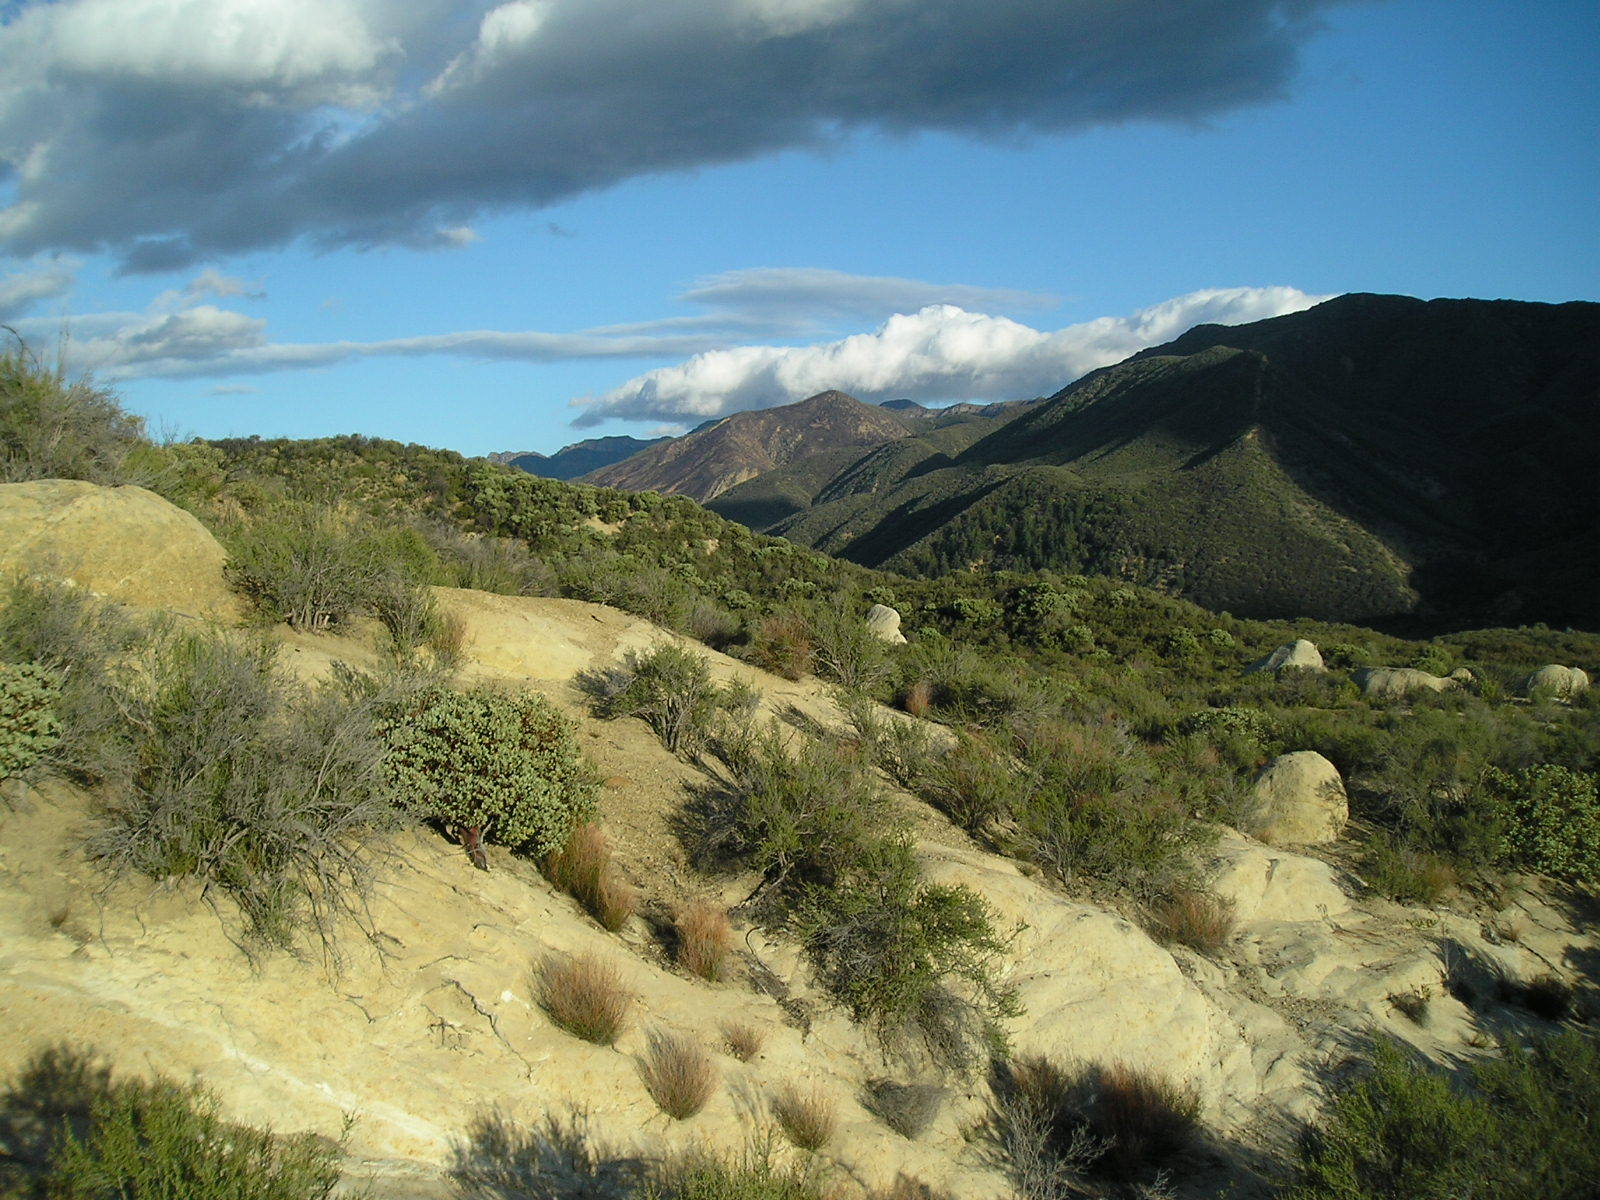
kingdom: Plantae
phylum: Tracheophyta
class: Pinopsida
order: Pinales
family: Pinaceae
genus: Pseudotsuga
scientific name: Pseudotsuga macrocarpa
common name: Big-cone douglas-fir
